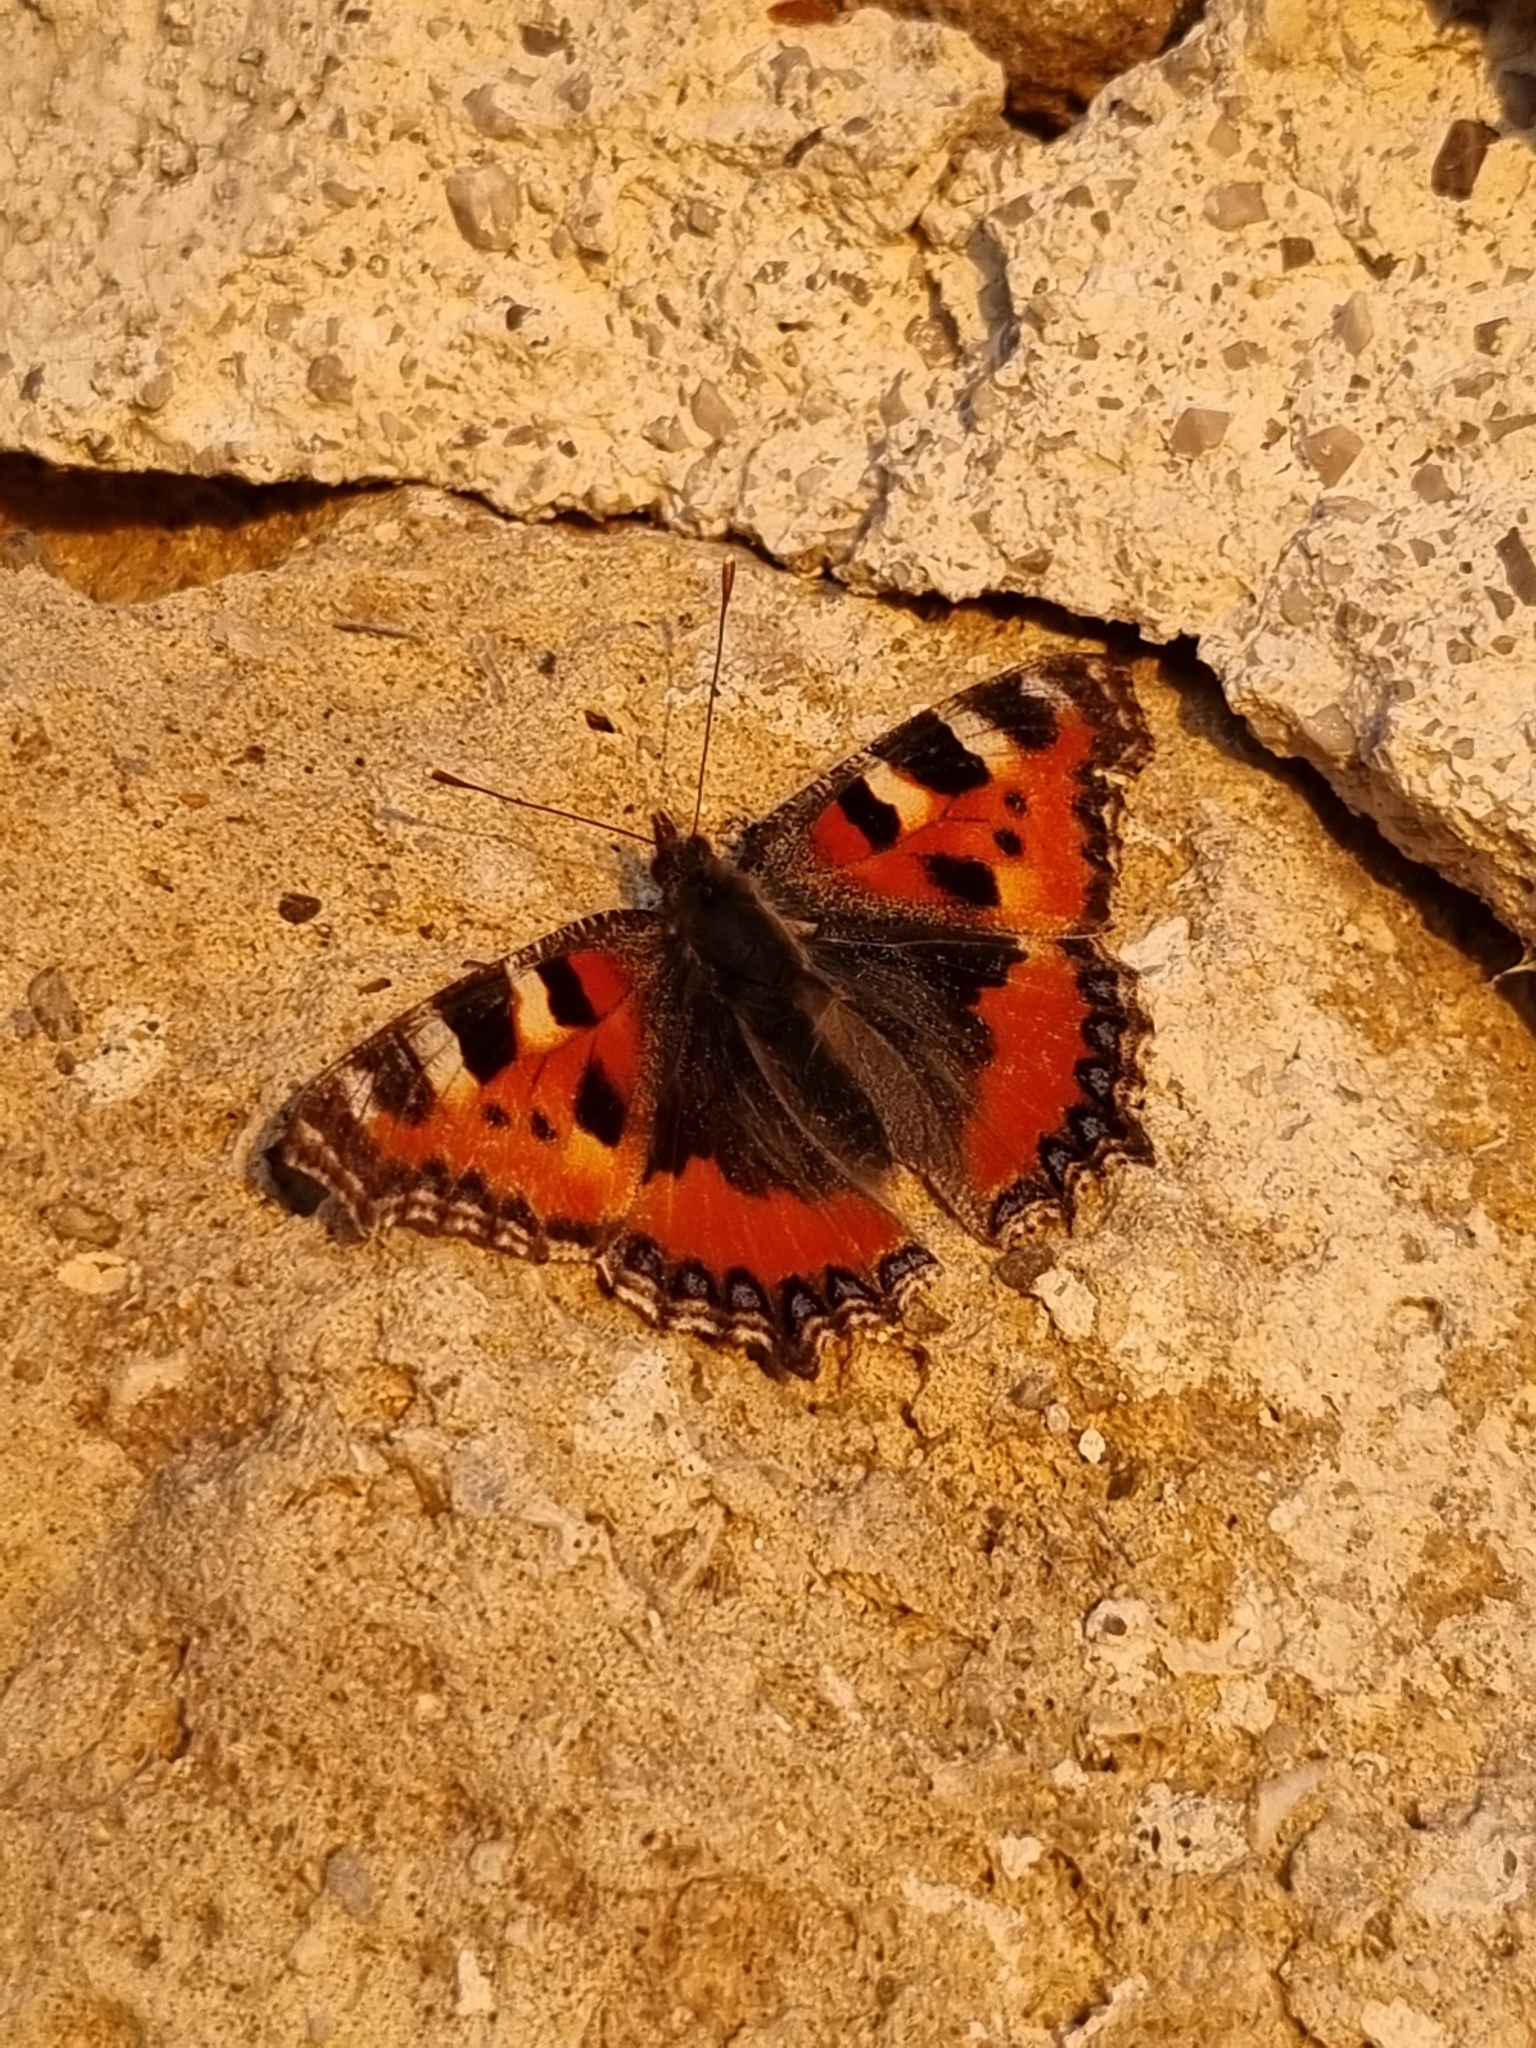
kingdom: Animalia
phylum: Arthropoda
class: Insecta
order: Lepidoptera
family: Nymphalidae
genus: Aglais
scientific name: Aglais urticae
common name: Small tortoiseshell
